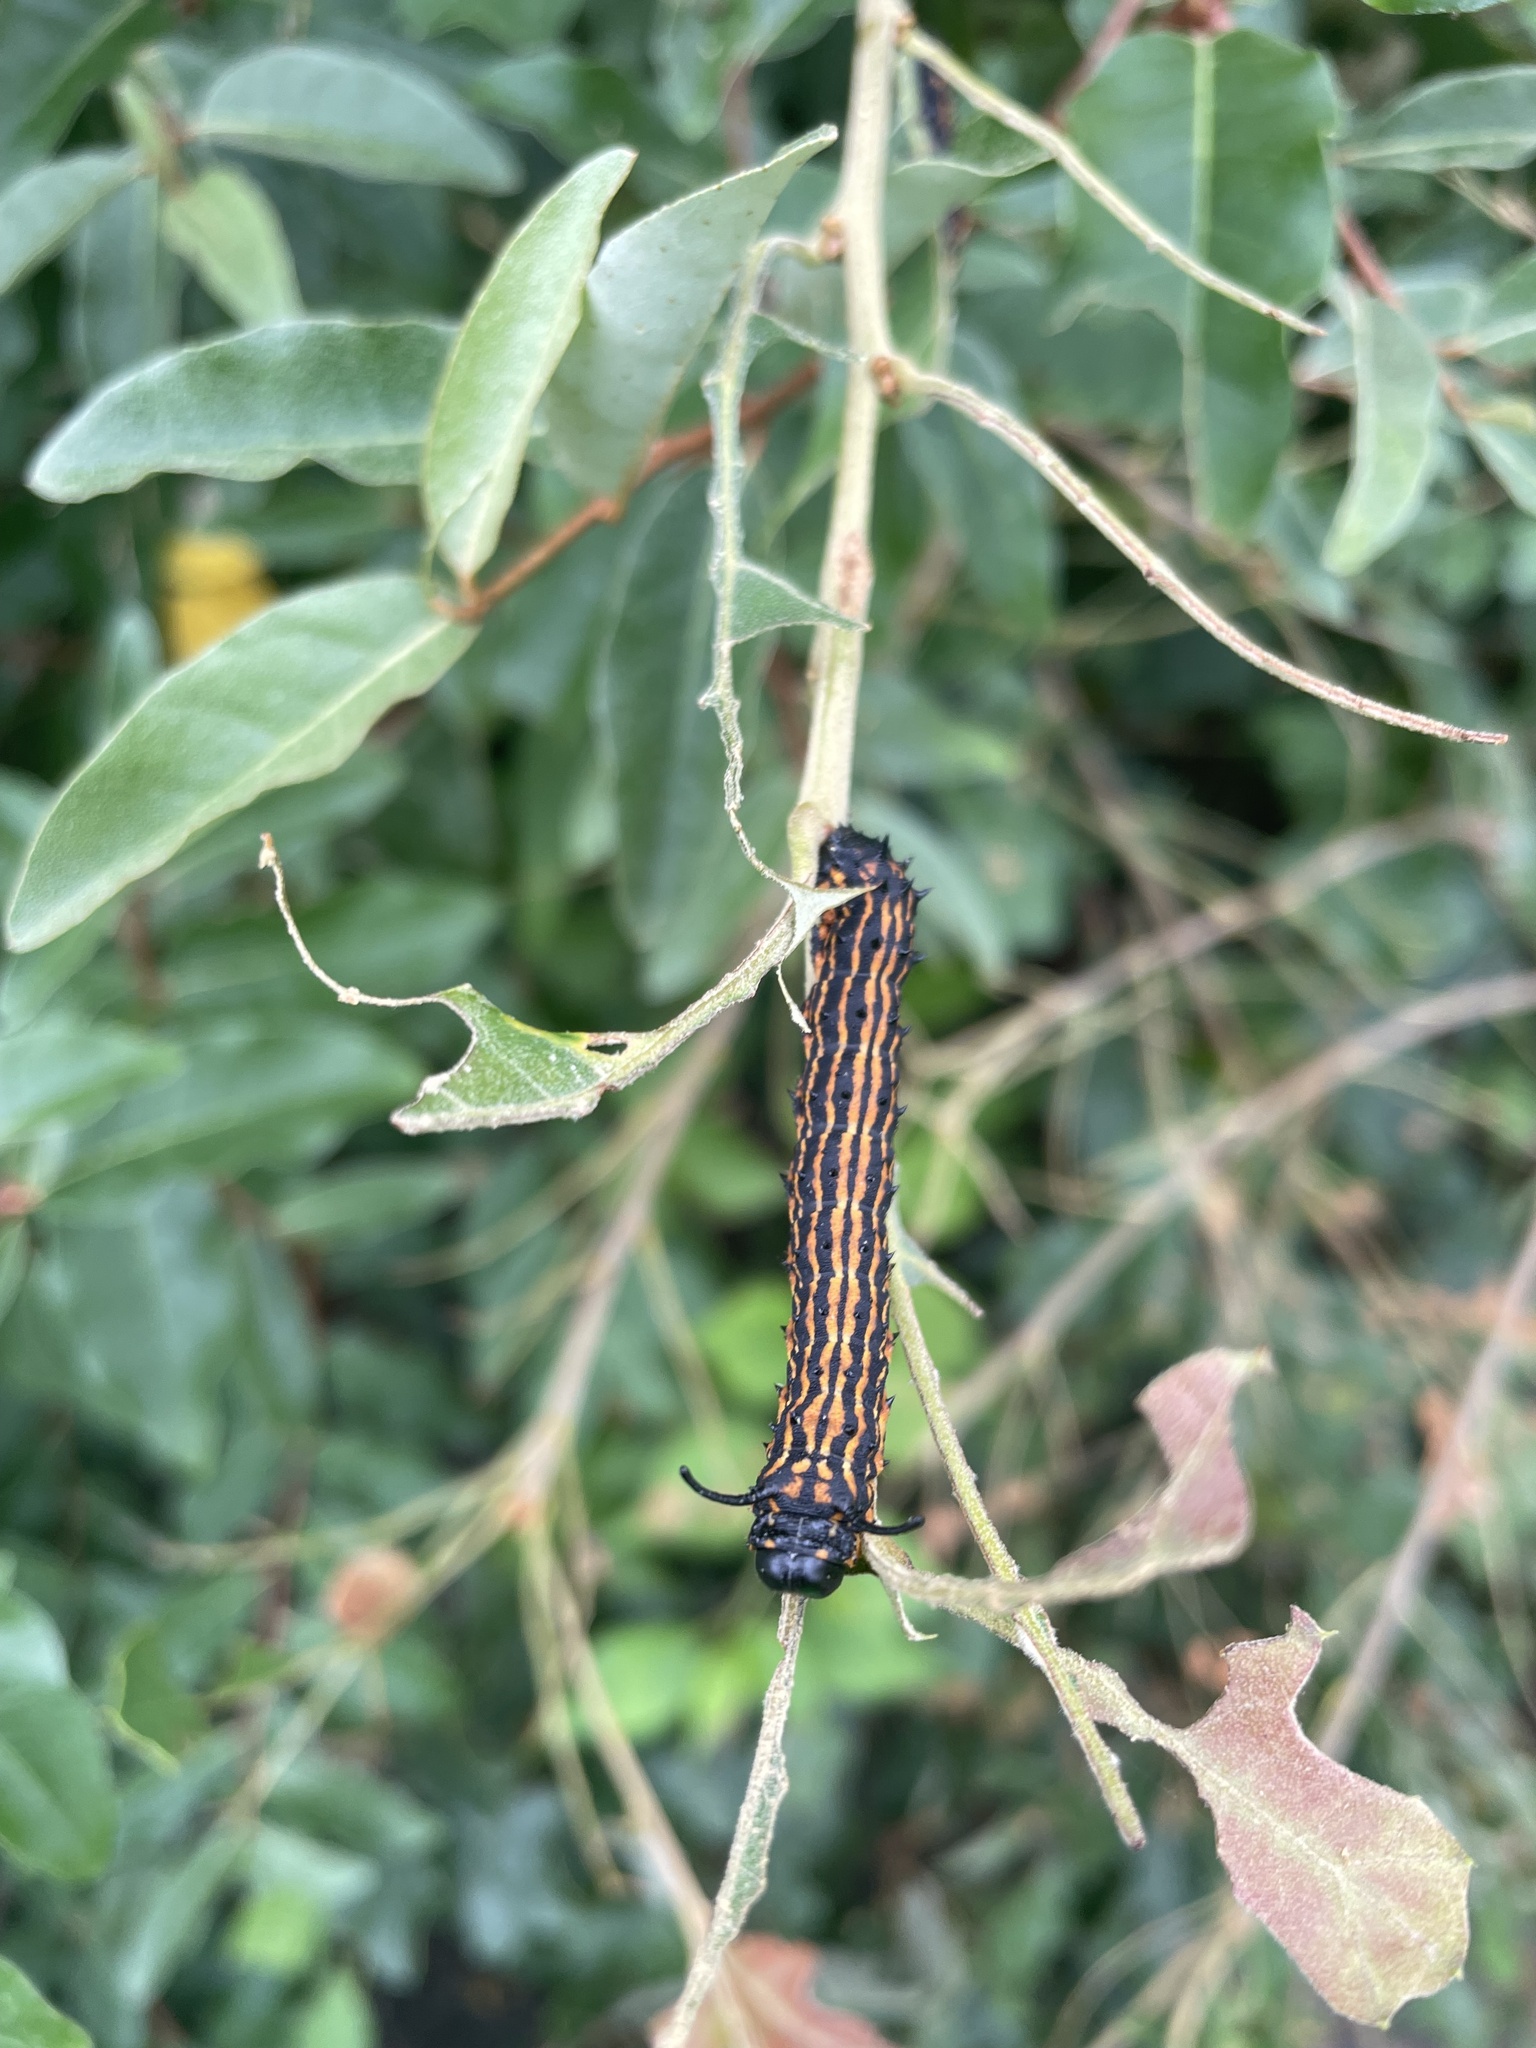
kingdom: Animalia
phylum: Arthropoda
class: Insecta
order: Lepidoptera
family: Saturniidae
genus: Anisota
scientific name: Anisota senatoria
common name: Orange-striped oakworm moth
